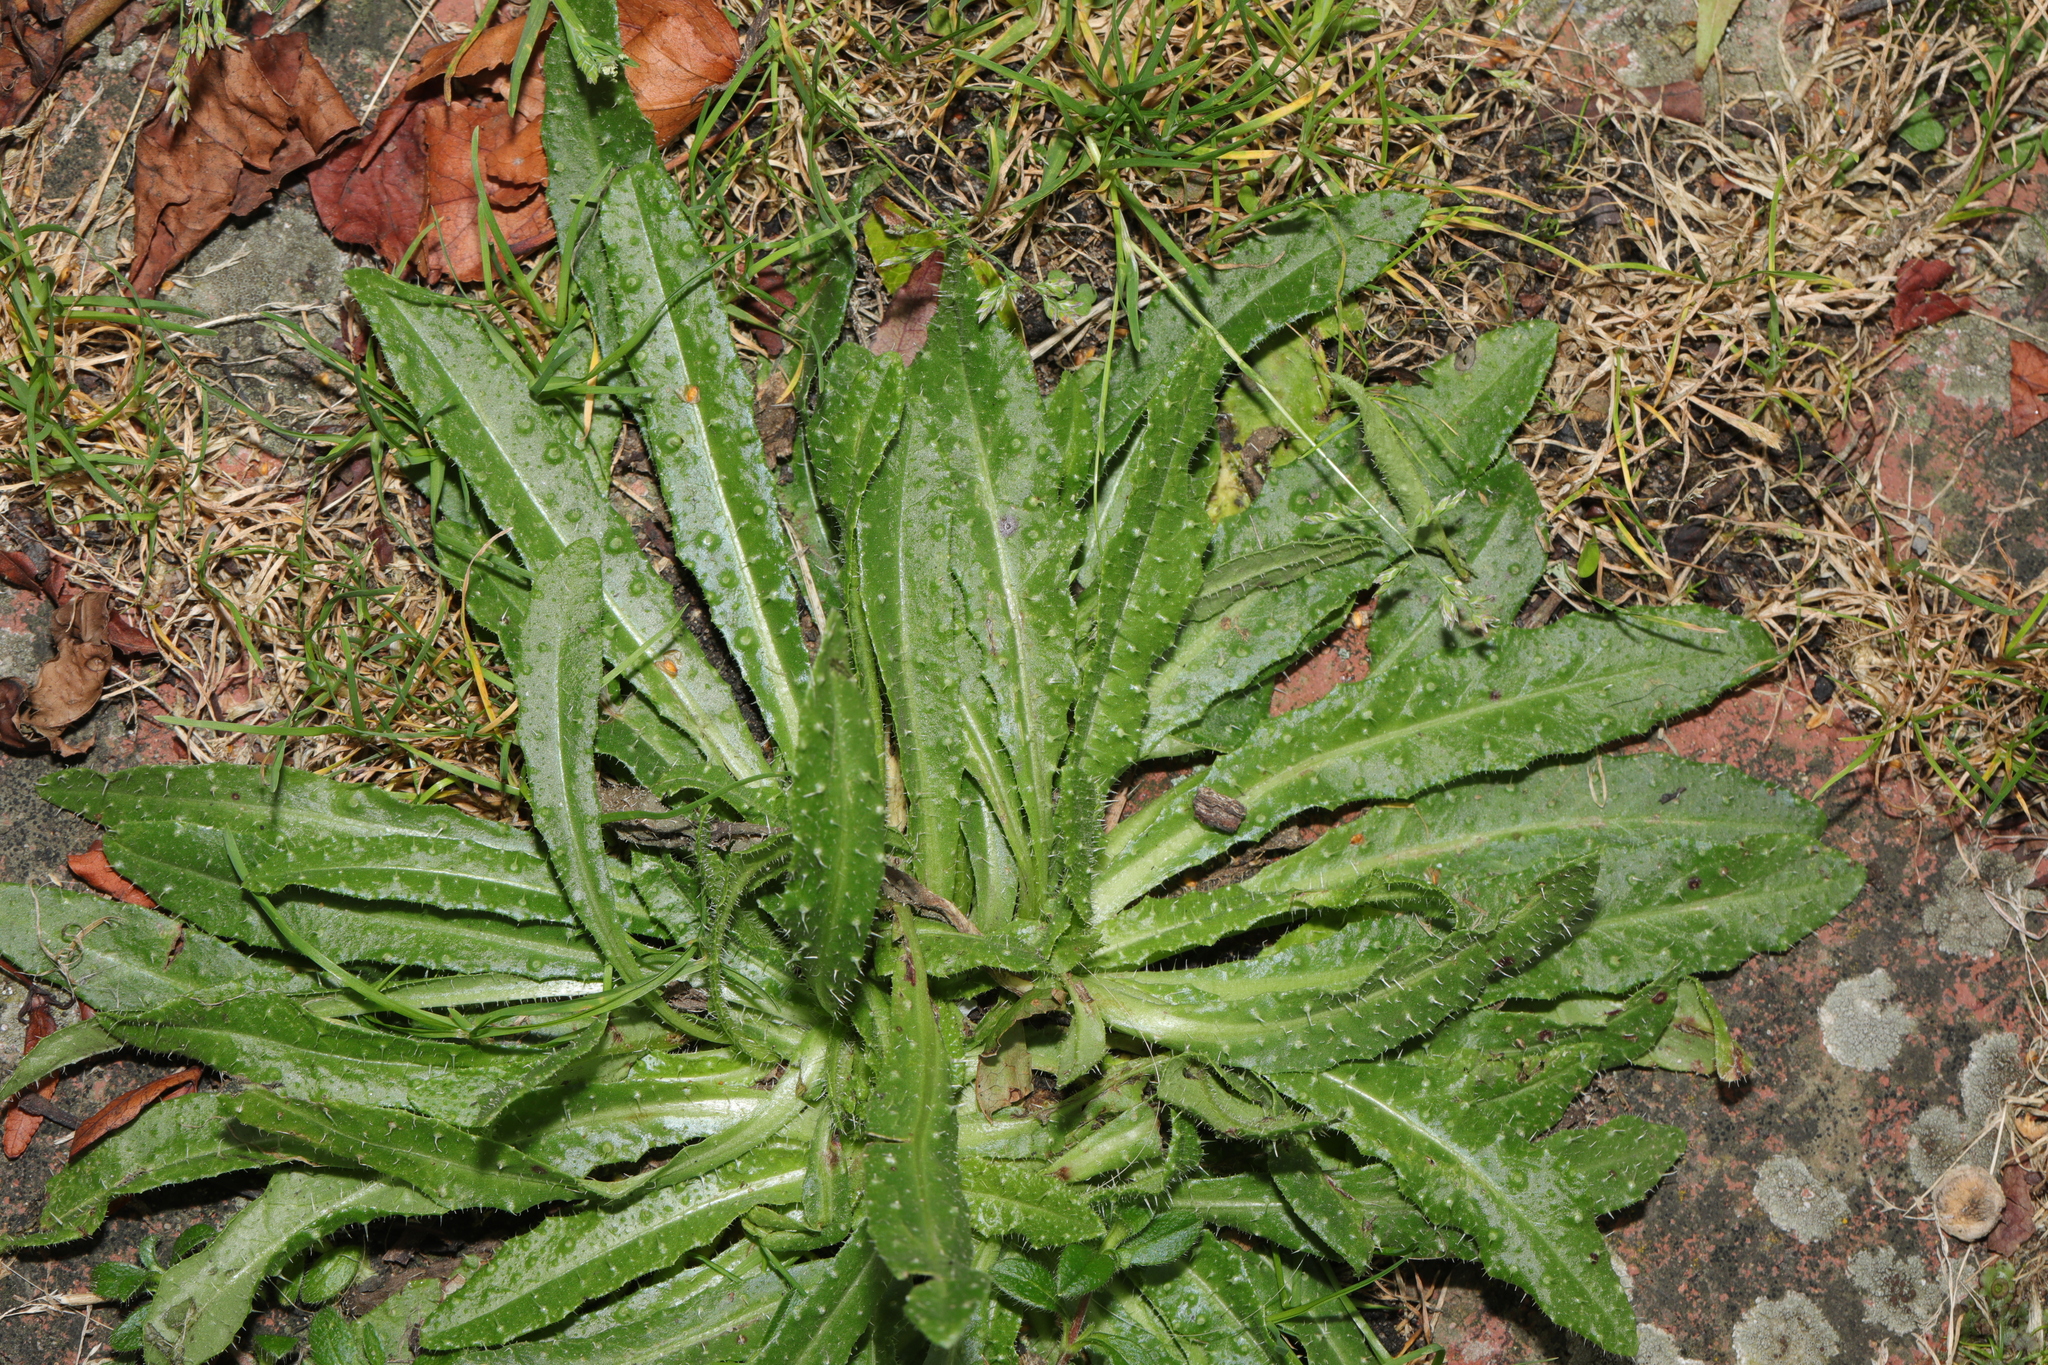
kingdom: Plantae
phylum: Tracheophyta
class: Magnoliopsida
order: Asterales
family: Asteraceae
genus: Helminthotheca
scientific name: Helminthotheca echioides
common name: Ox-tongue
